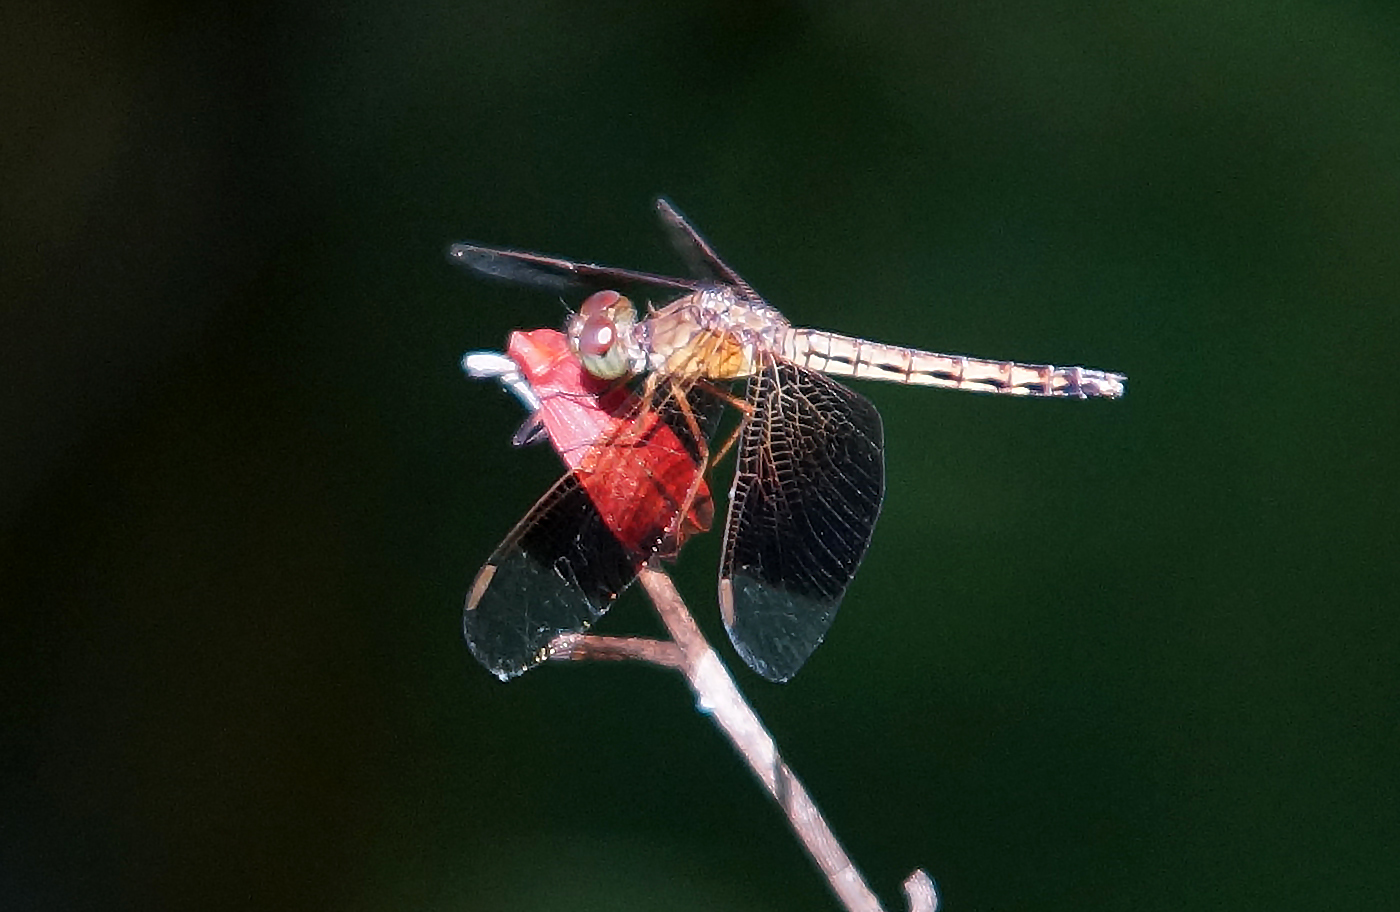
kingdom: Animalia
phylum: Arthropoda
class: Insecta
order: Odonata
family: Libellulidae
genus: Neurothemis
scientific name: Neurothemis fluctuans
